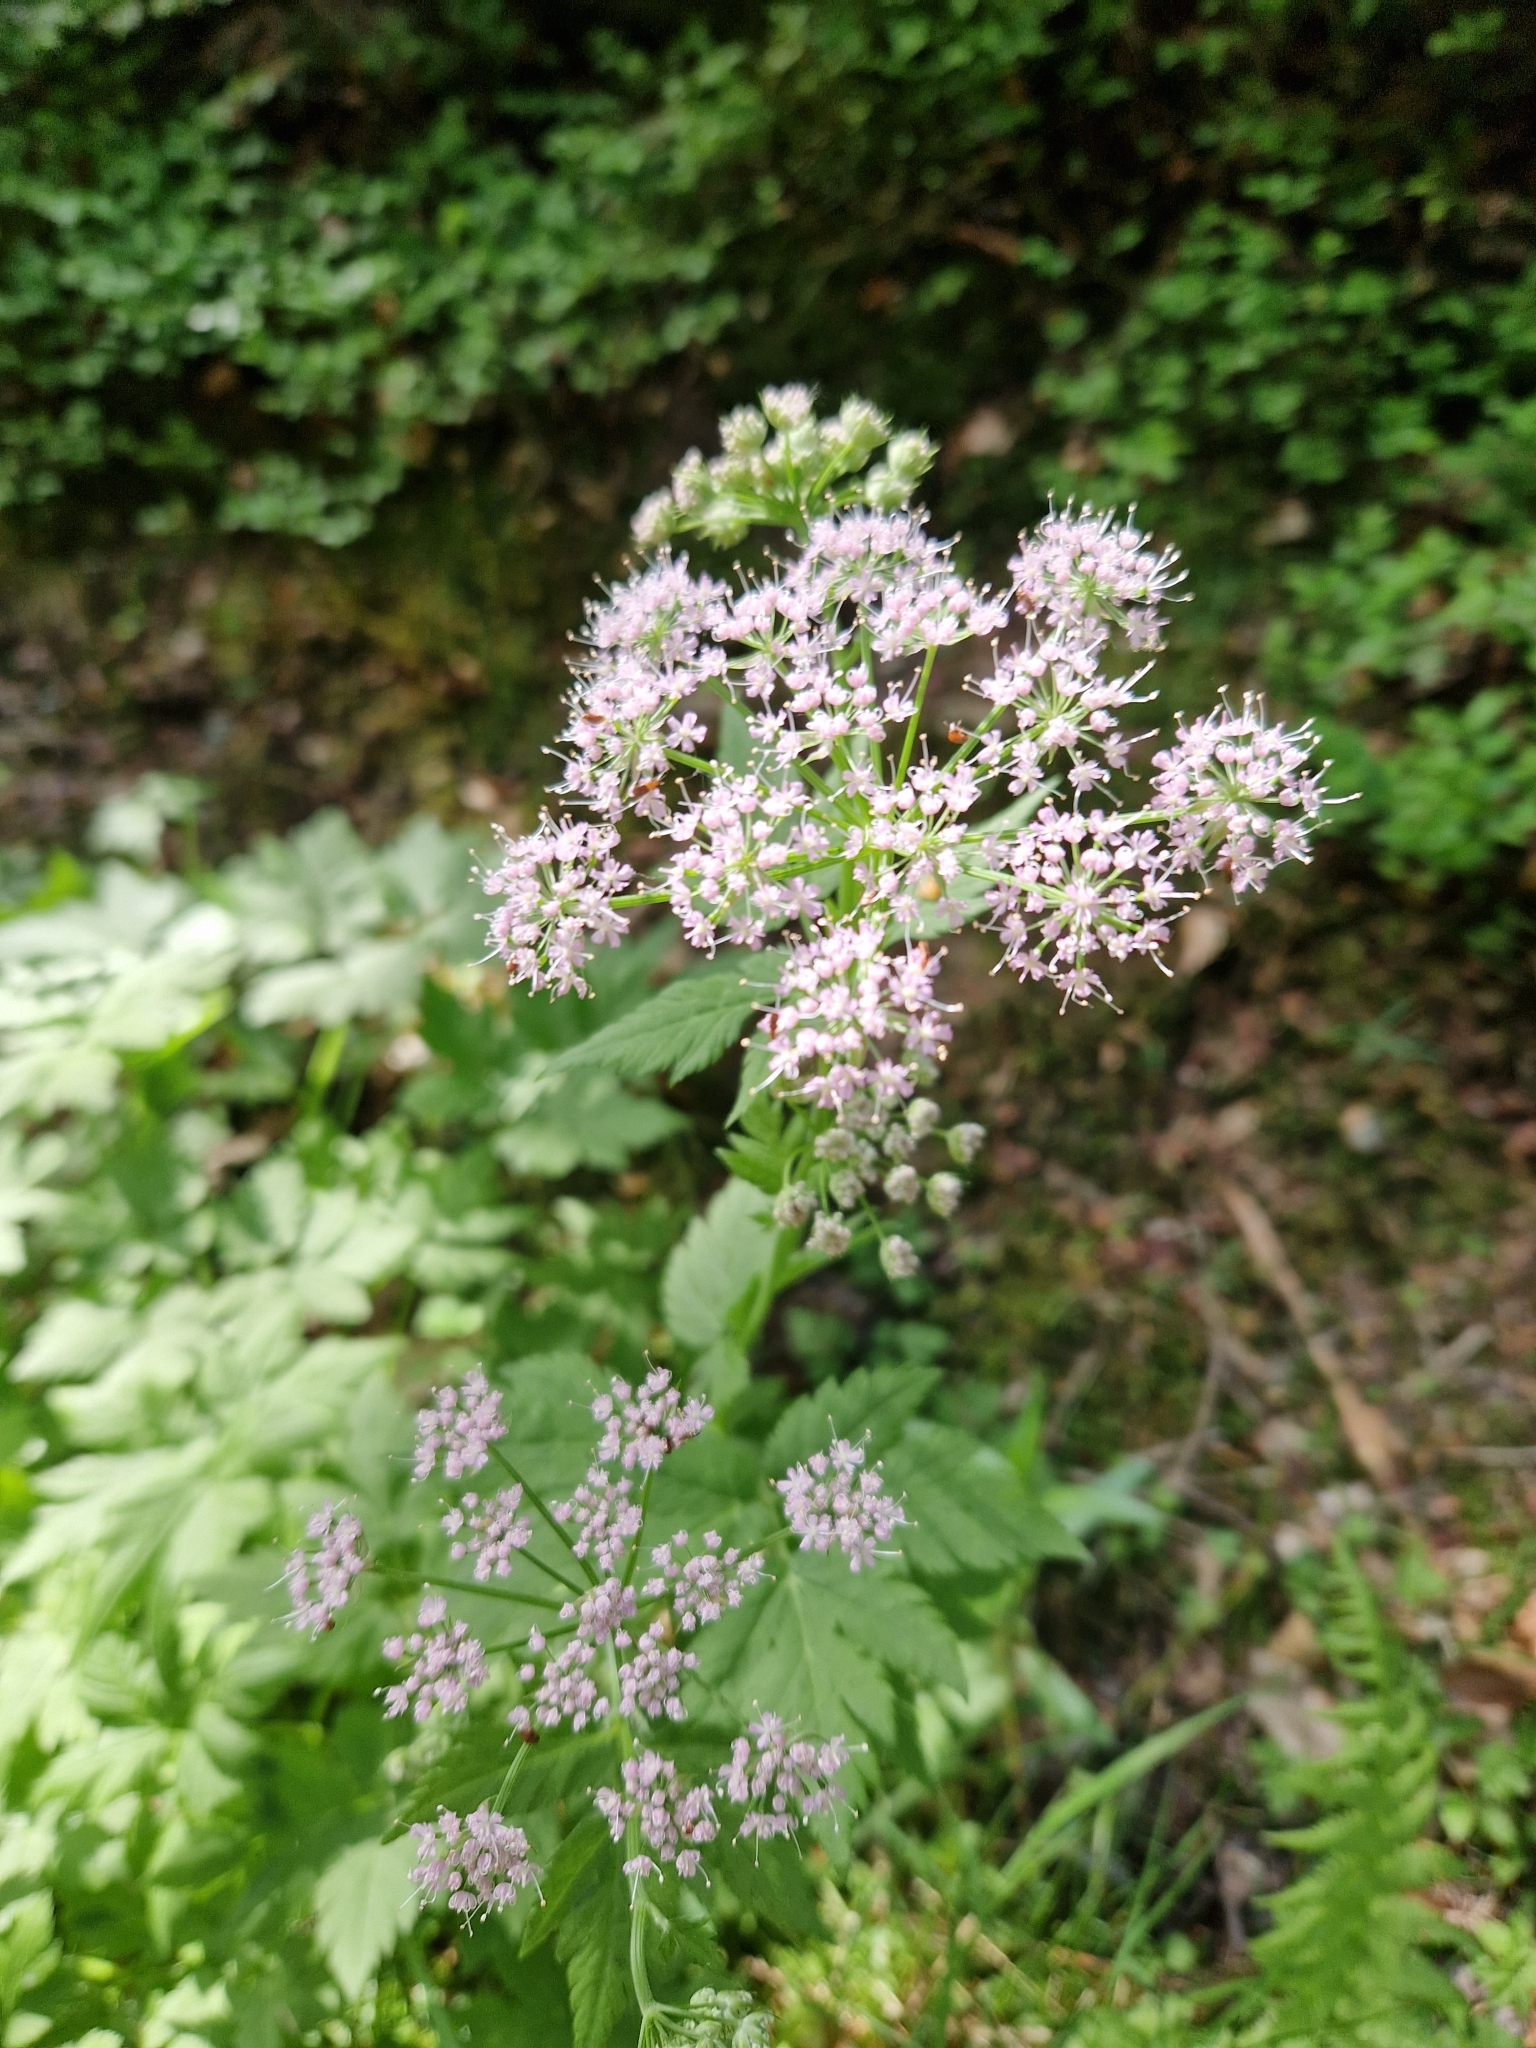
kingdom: Plantae
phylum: Tracheophyta
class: Magnoliopsida
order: Apiales
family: Apiaceae
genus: Chaerophyllum
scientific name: Chaerophyllum hirsutum
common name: Hairy chervil
